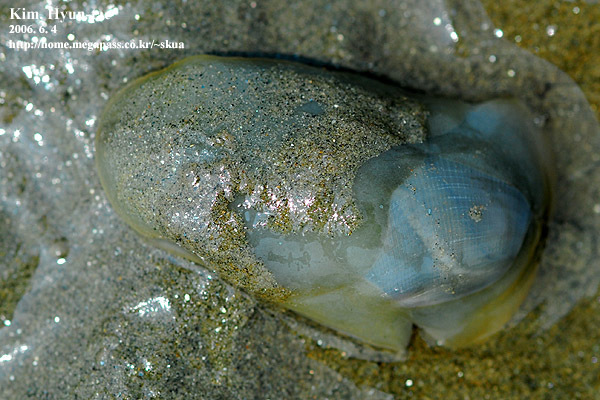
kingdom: Animalia
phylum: Mollusca
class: Gastropoda
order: Cephalaspidea
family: Haminoeidae
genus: Bullacta
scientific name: Bullacta caurina
